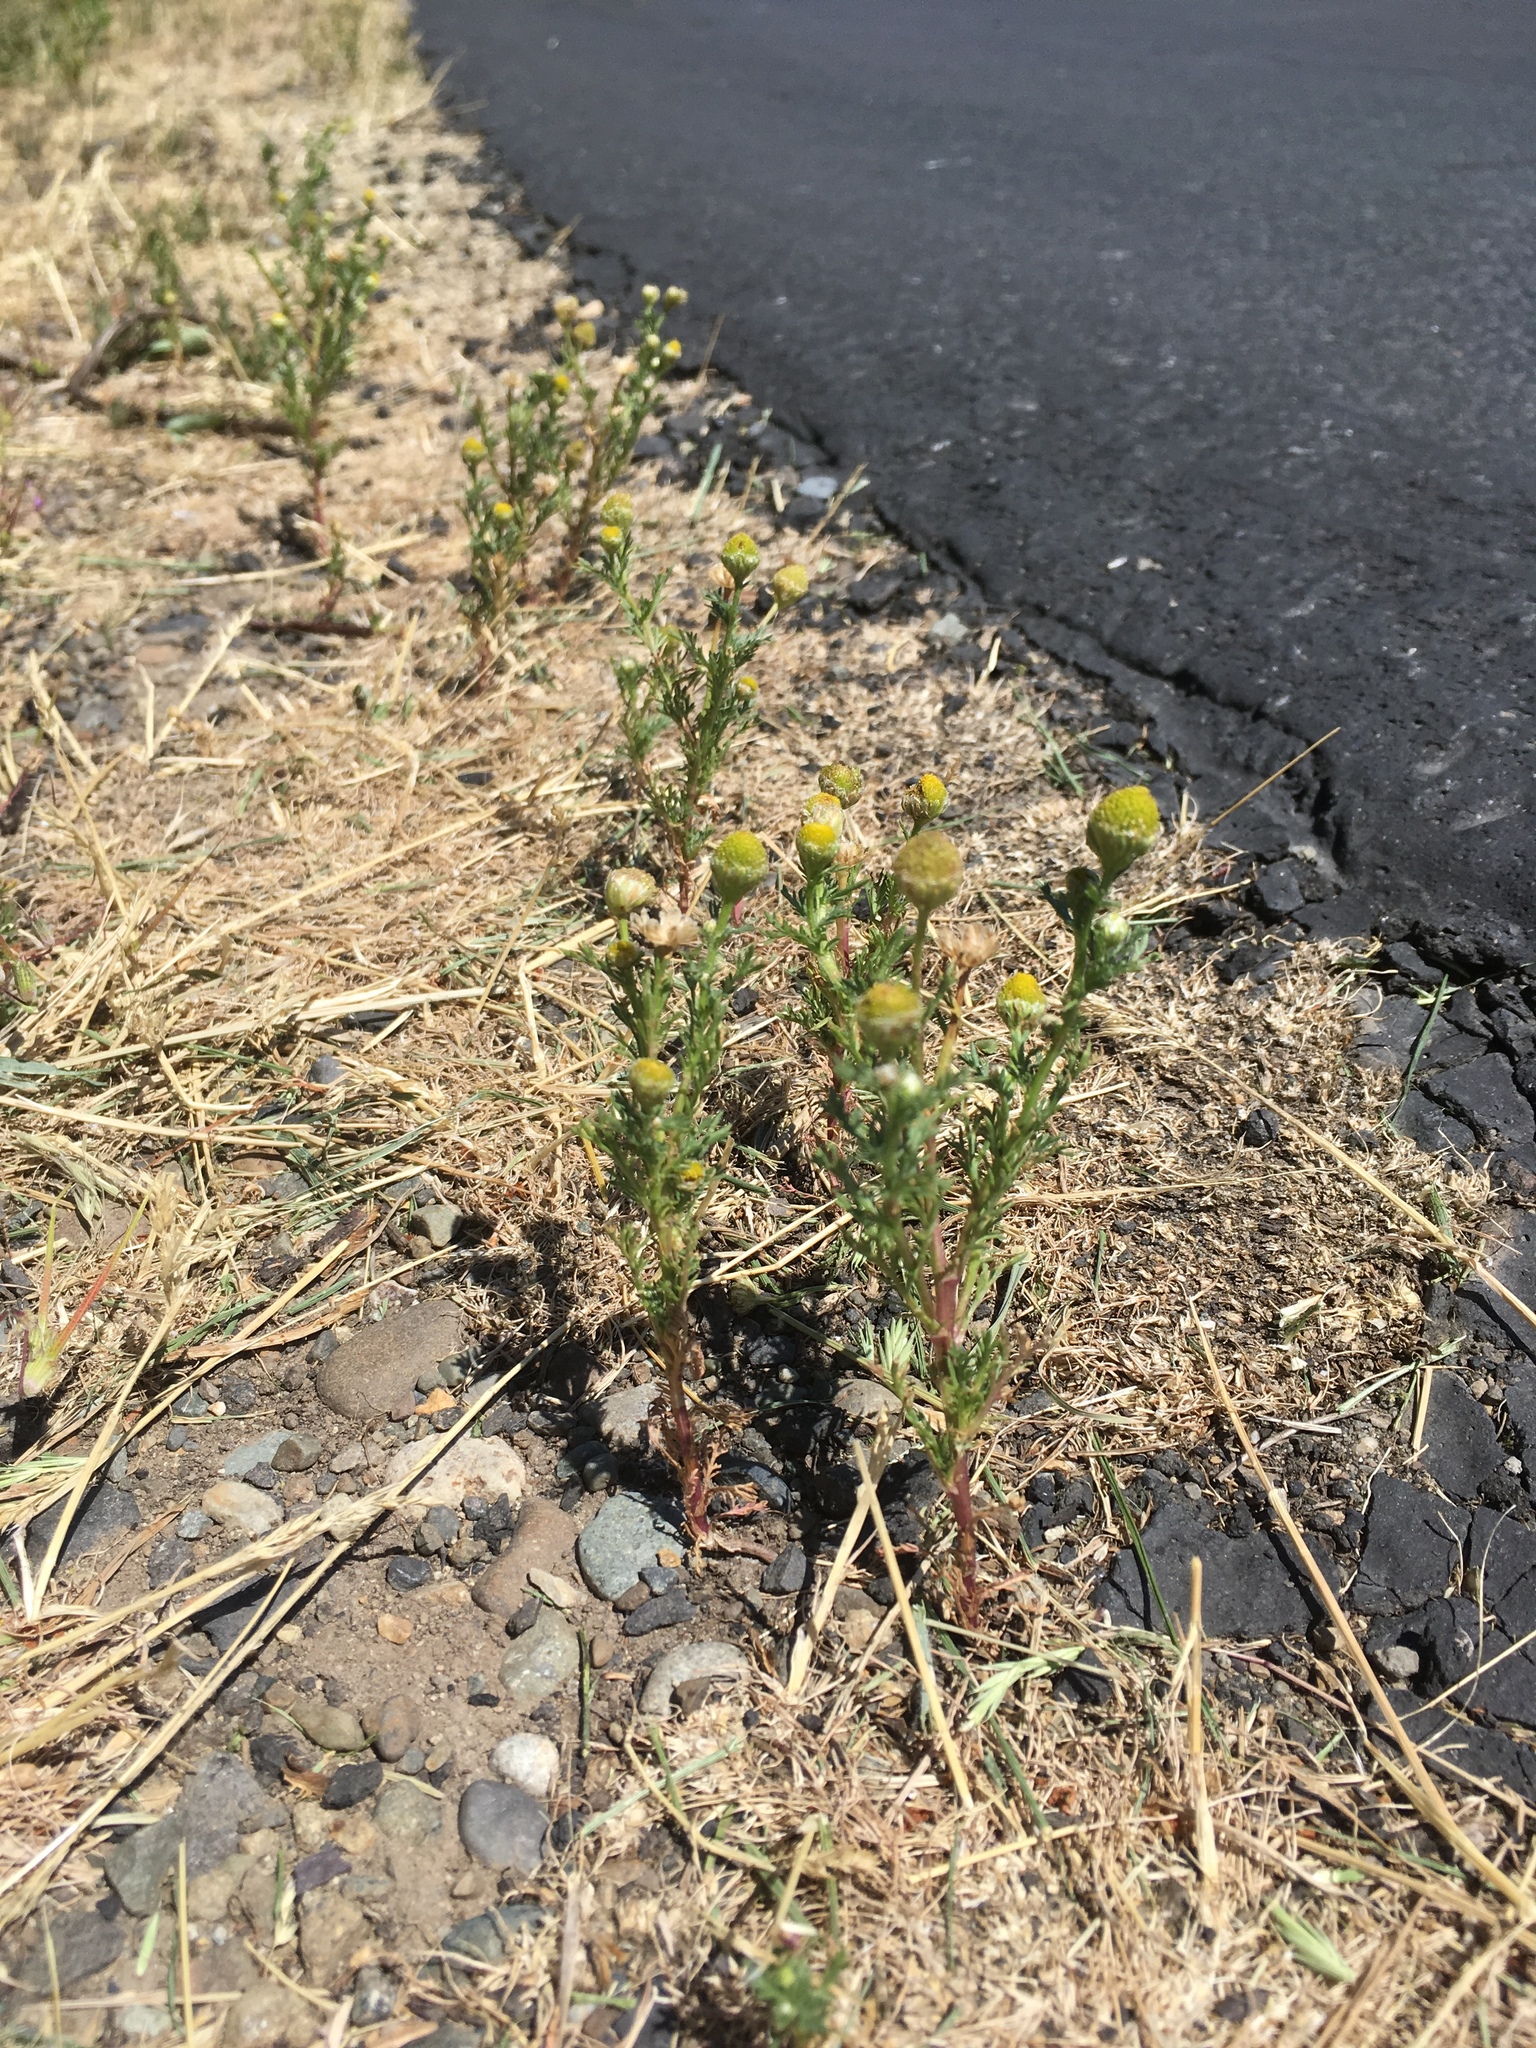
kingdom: Plantae
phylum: Tracheophyta
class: Magnoliopsida
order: Asterales
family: Asteraceae
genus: Matricaria
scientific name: Matricaria discoidea
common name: Disc mayweed
